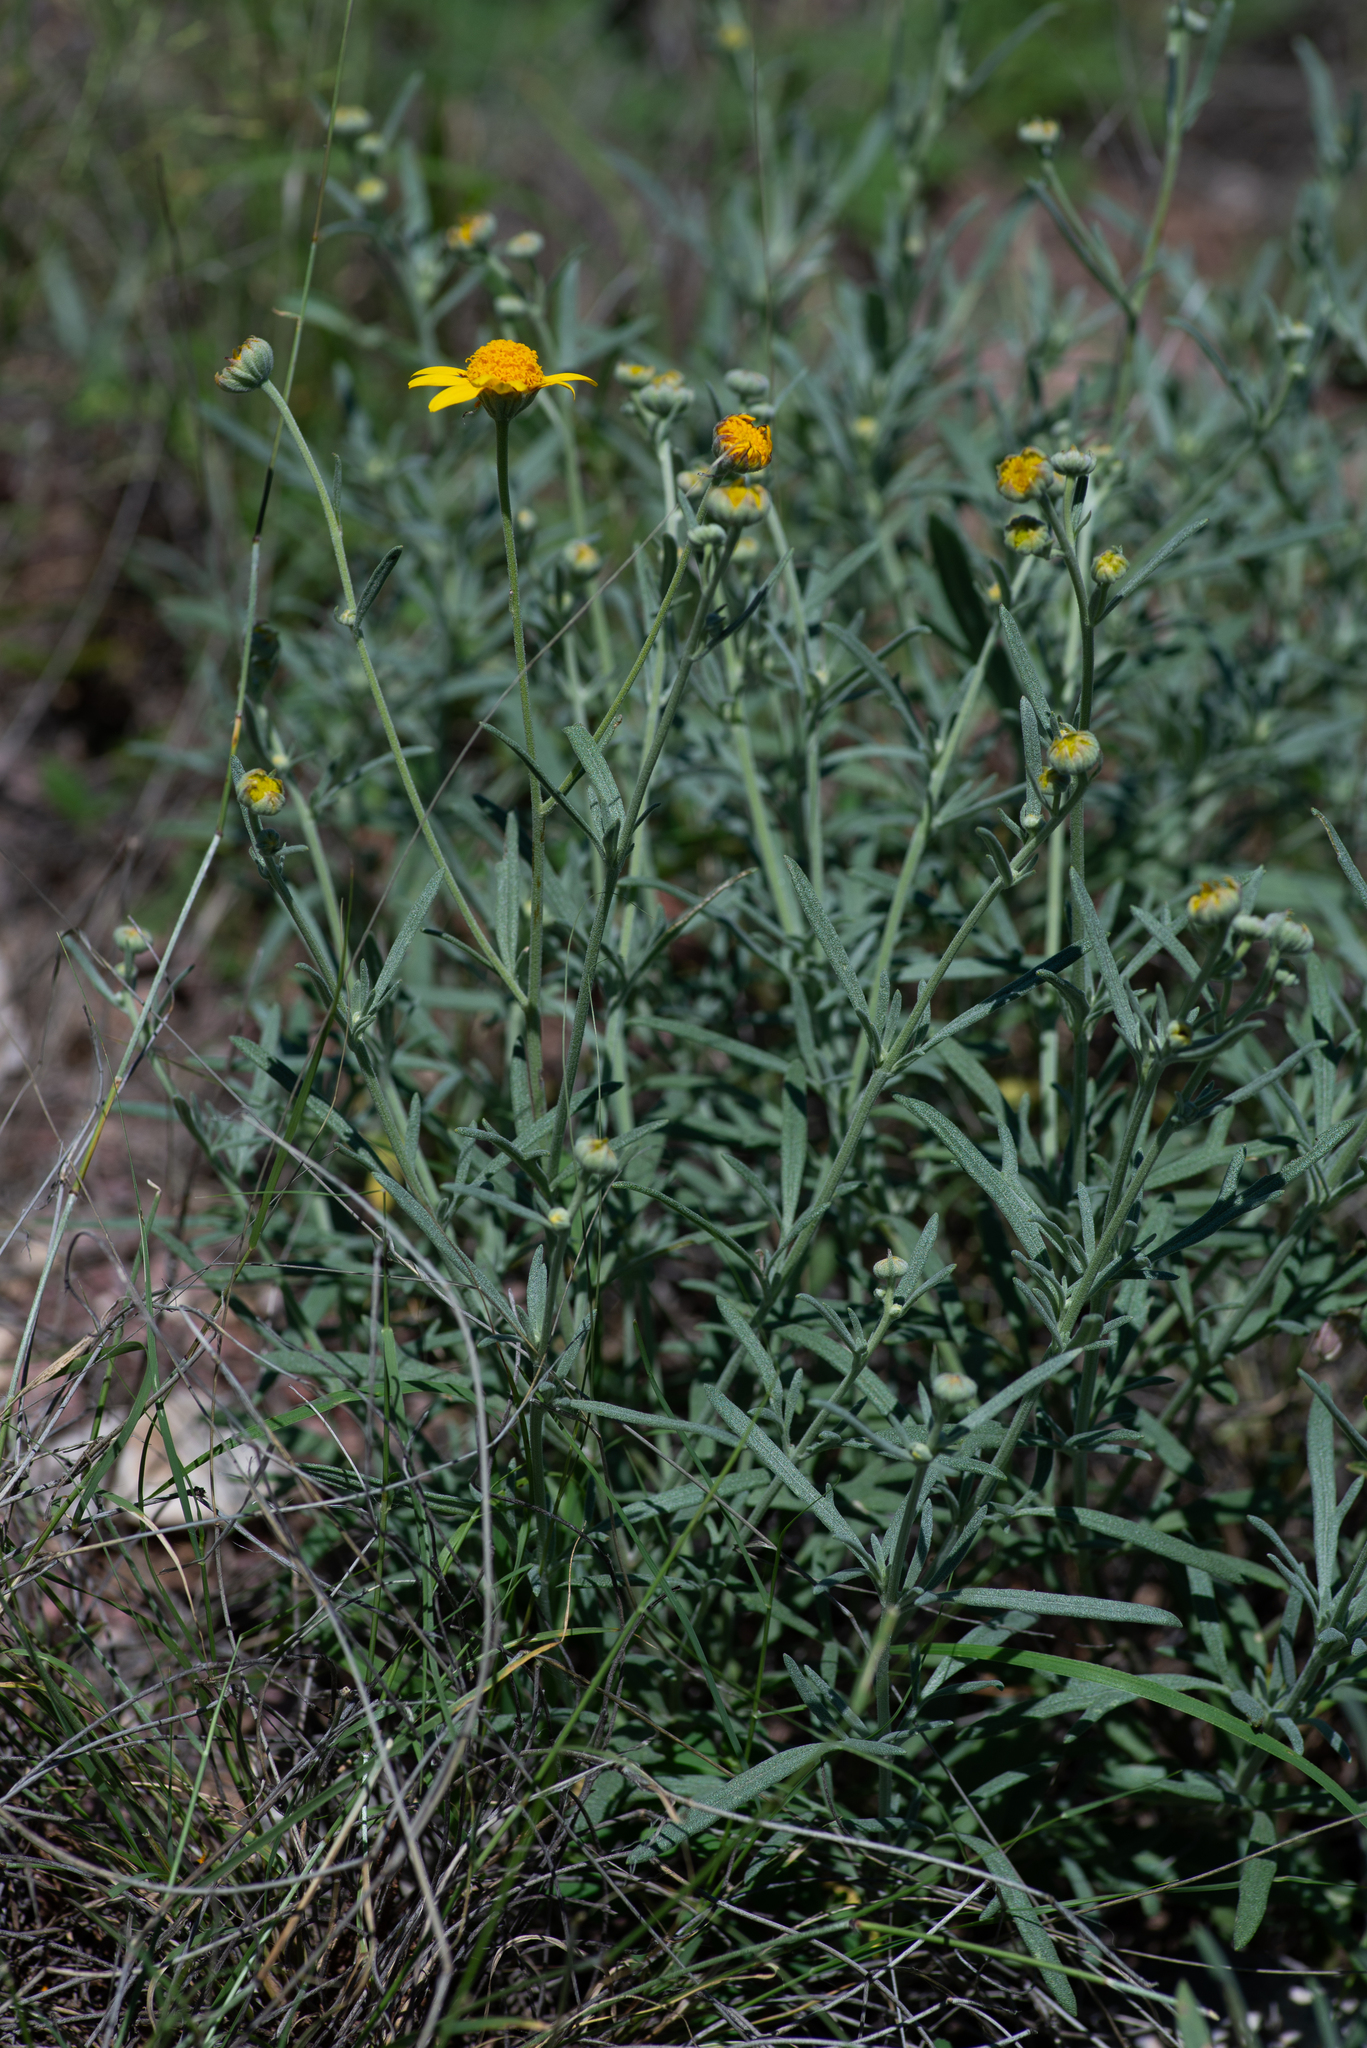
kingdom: Plantae
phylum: Tracheophyta
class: Magnoliopsida
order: Asterales
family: Asteraceae
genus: Picradeniopsis
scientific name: Picradeniopsis absinthifolia
